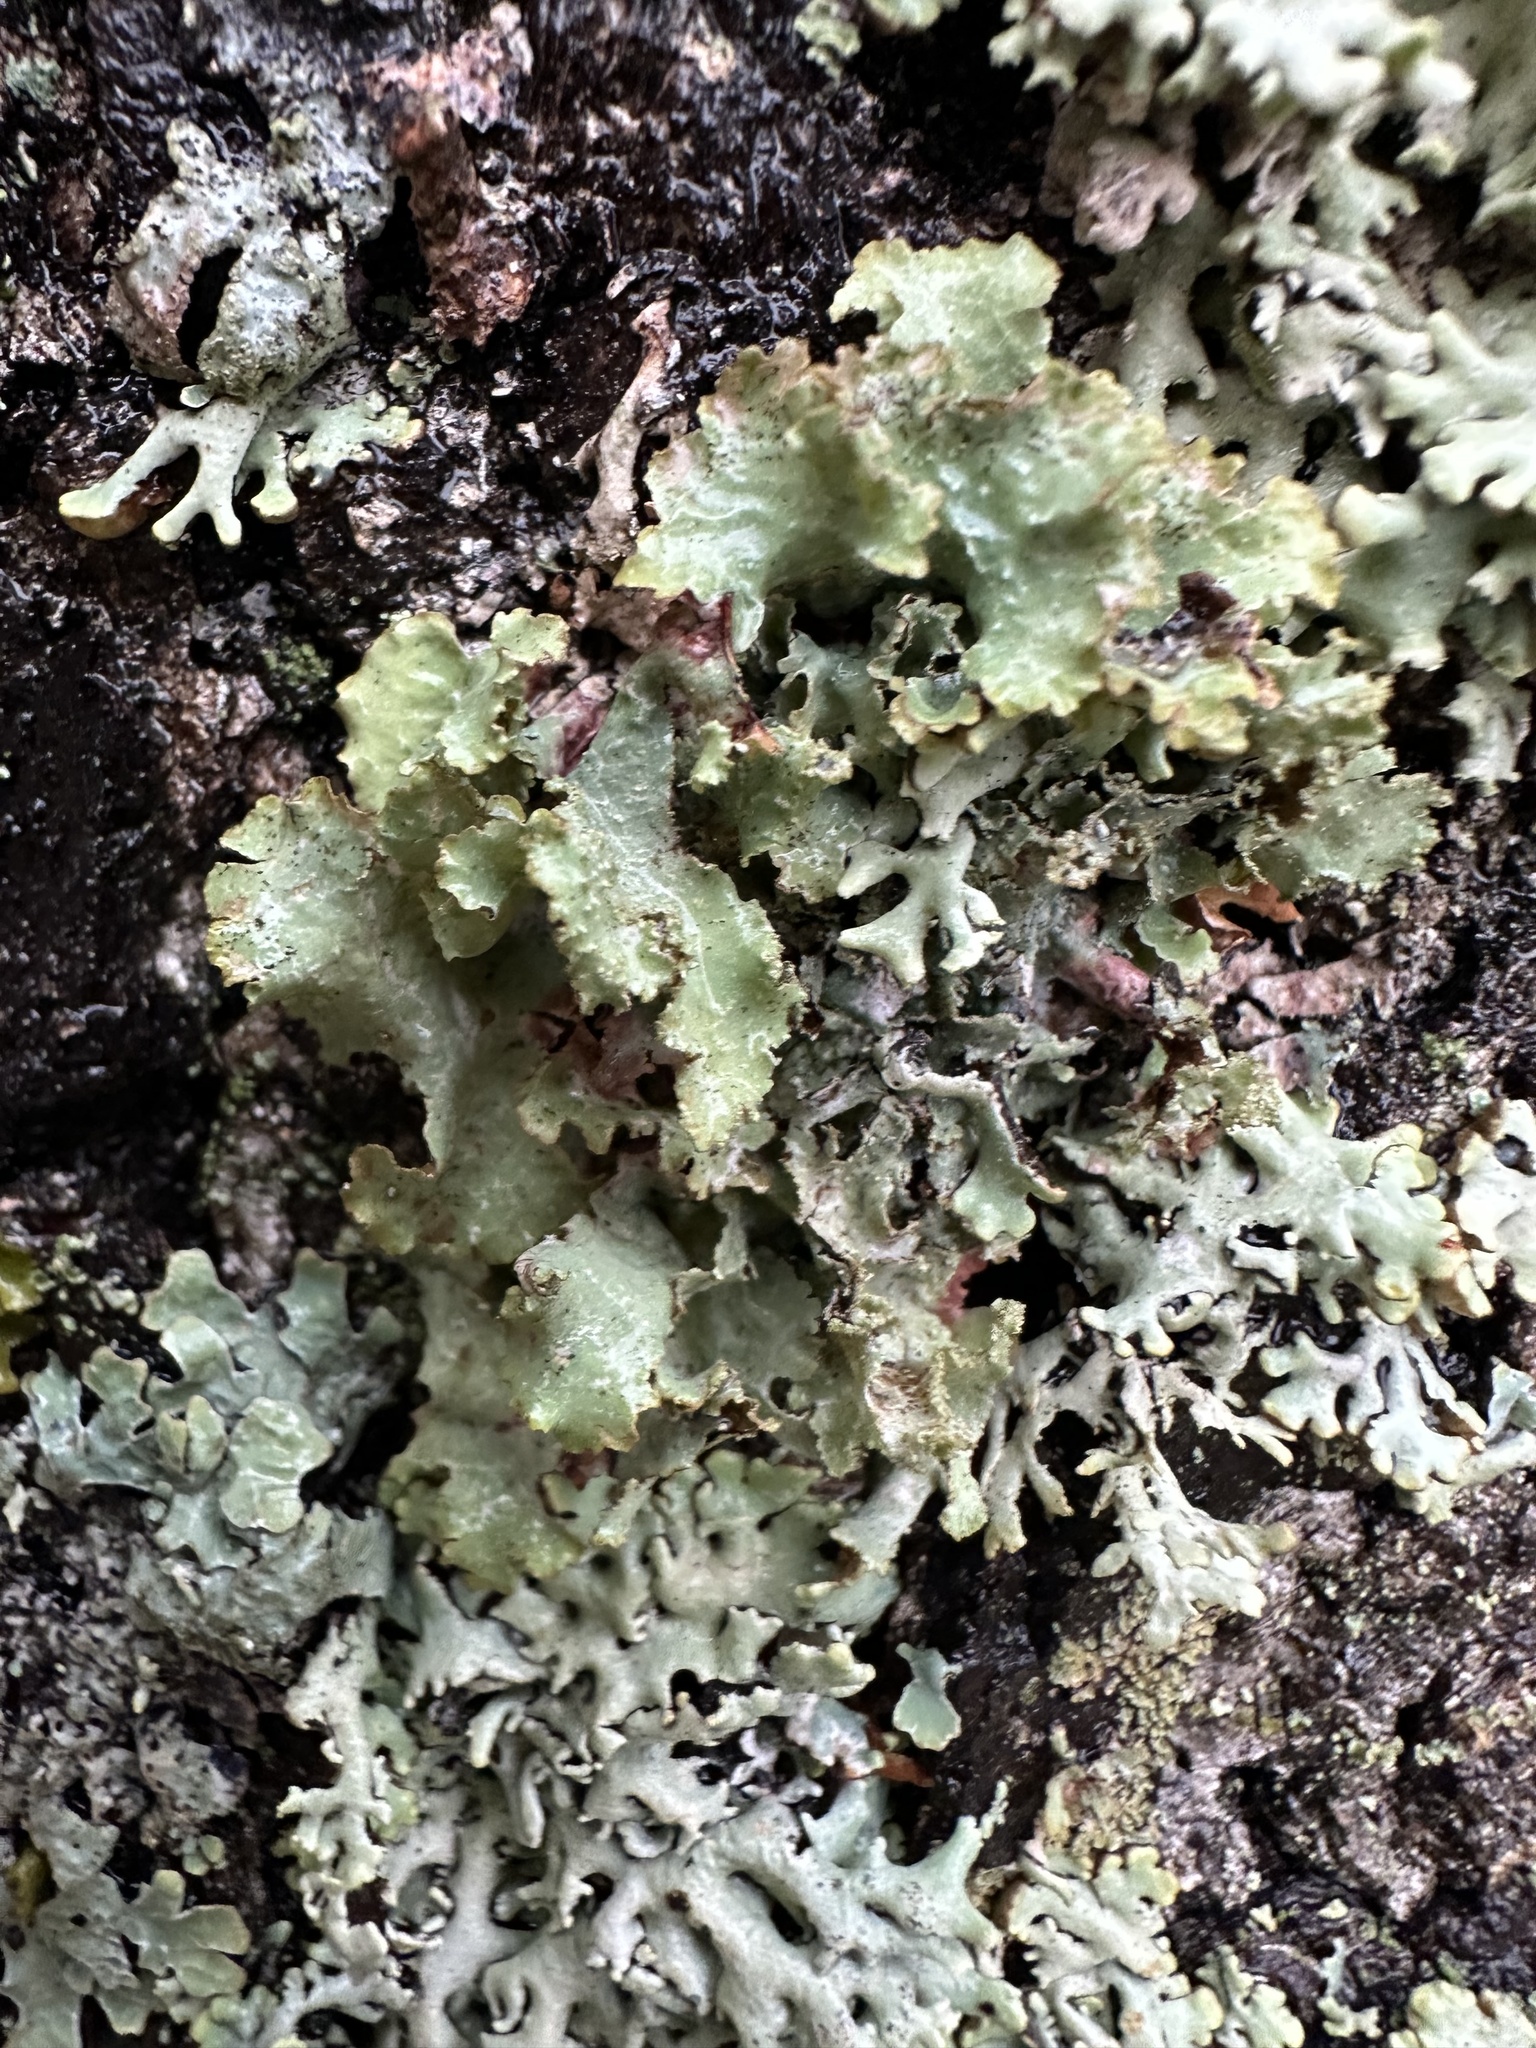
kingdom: Fungi
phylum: Ascomycota
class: Lecanoromycetes
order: Lecanorales
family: Parmeliaceae
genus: Platismatia
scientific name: Platismatia glauca
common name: Varied rag lichen
